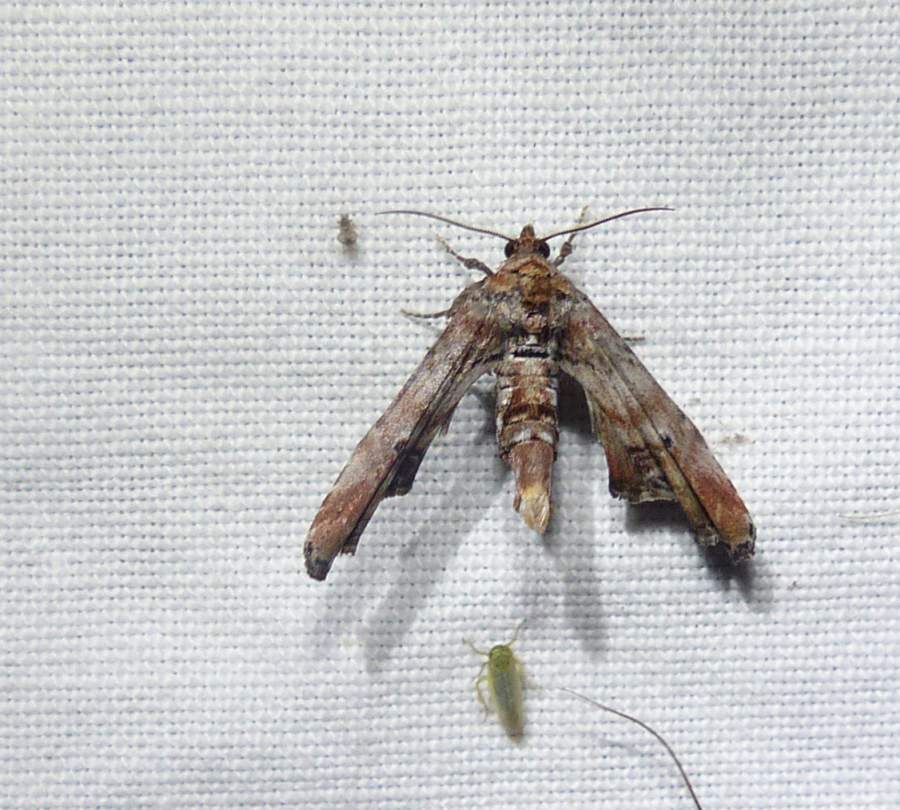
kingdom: Animalia
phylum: Arthropoda
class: Insecta
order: Lepidoptera
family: Euteliidae
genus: Marathyssa
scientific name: Marathyssa inficita
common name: Dark marathyssa moth
